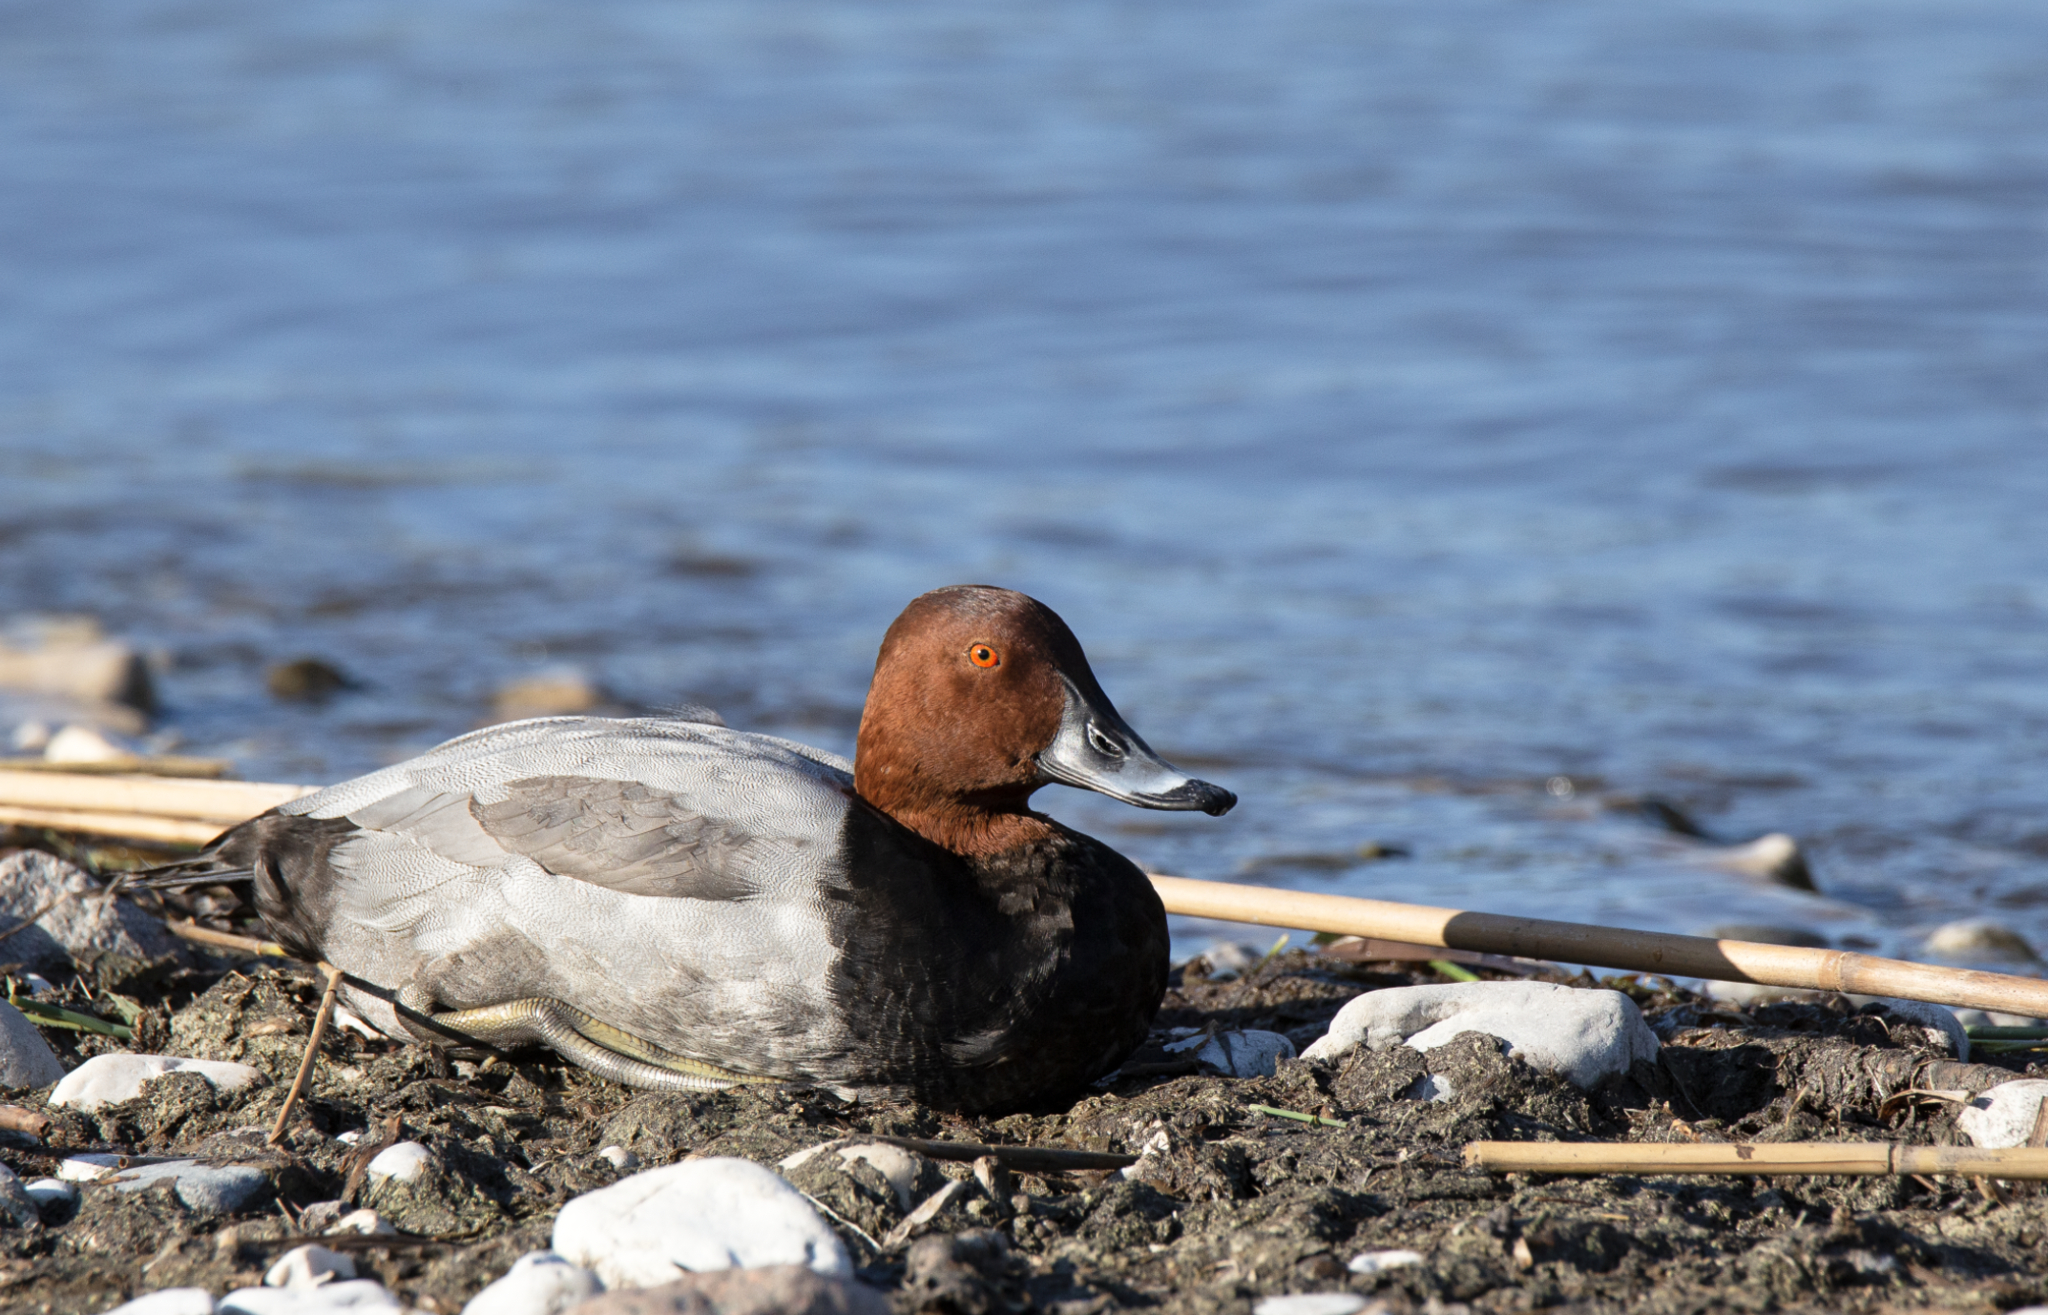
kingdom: Animalia
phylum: Chordata
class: Aves
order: Anseriformes
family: Anatidae
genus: Aythya
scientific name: Aythya ferina
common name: Common pochard
